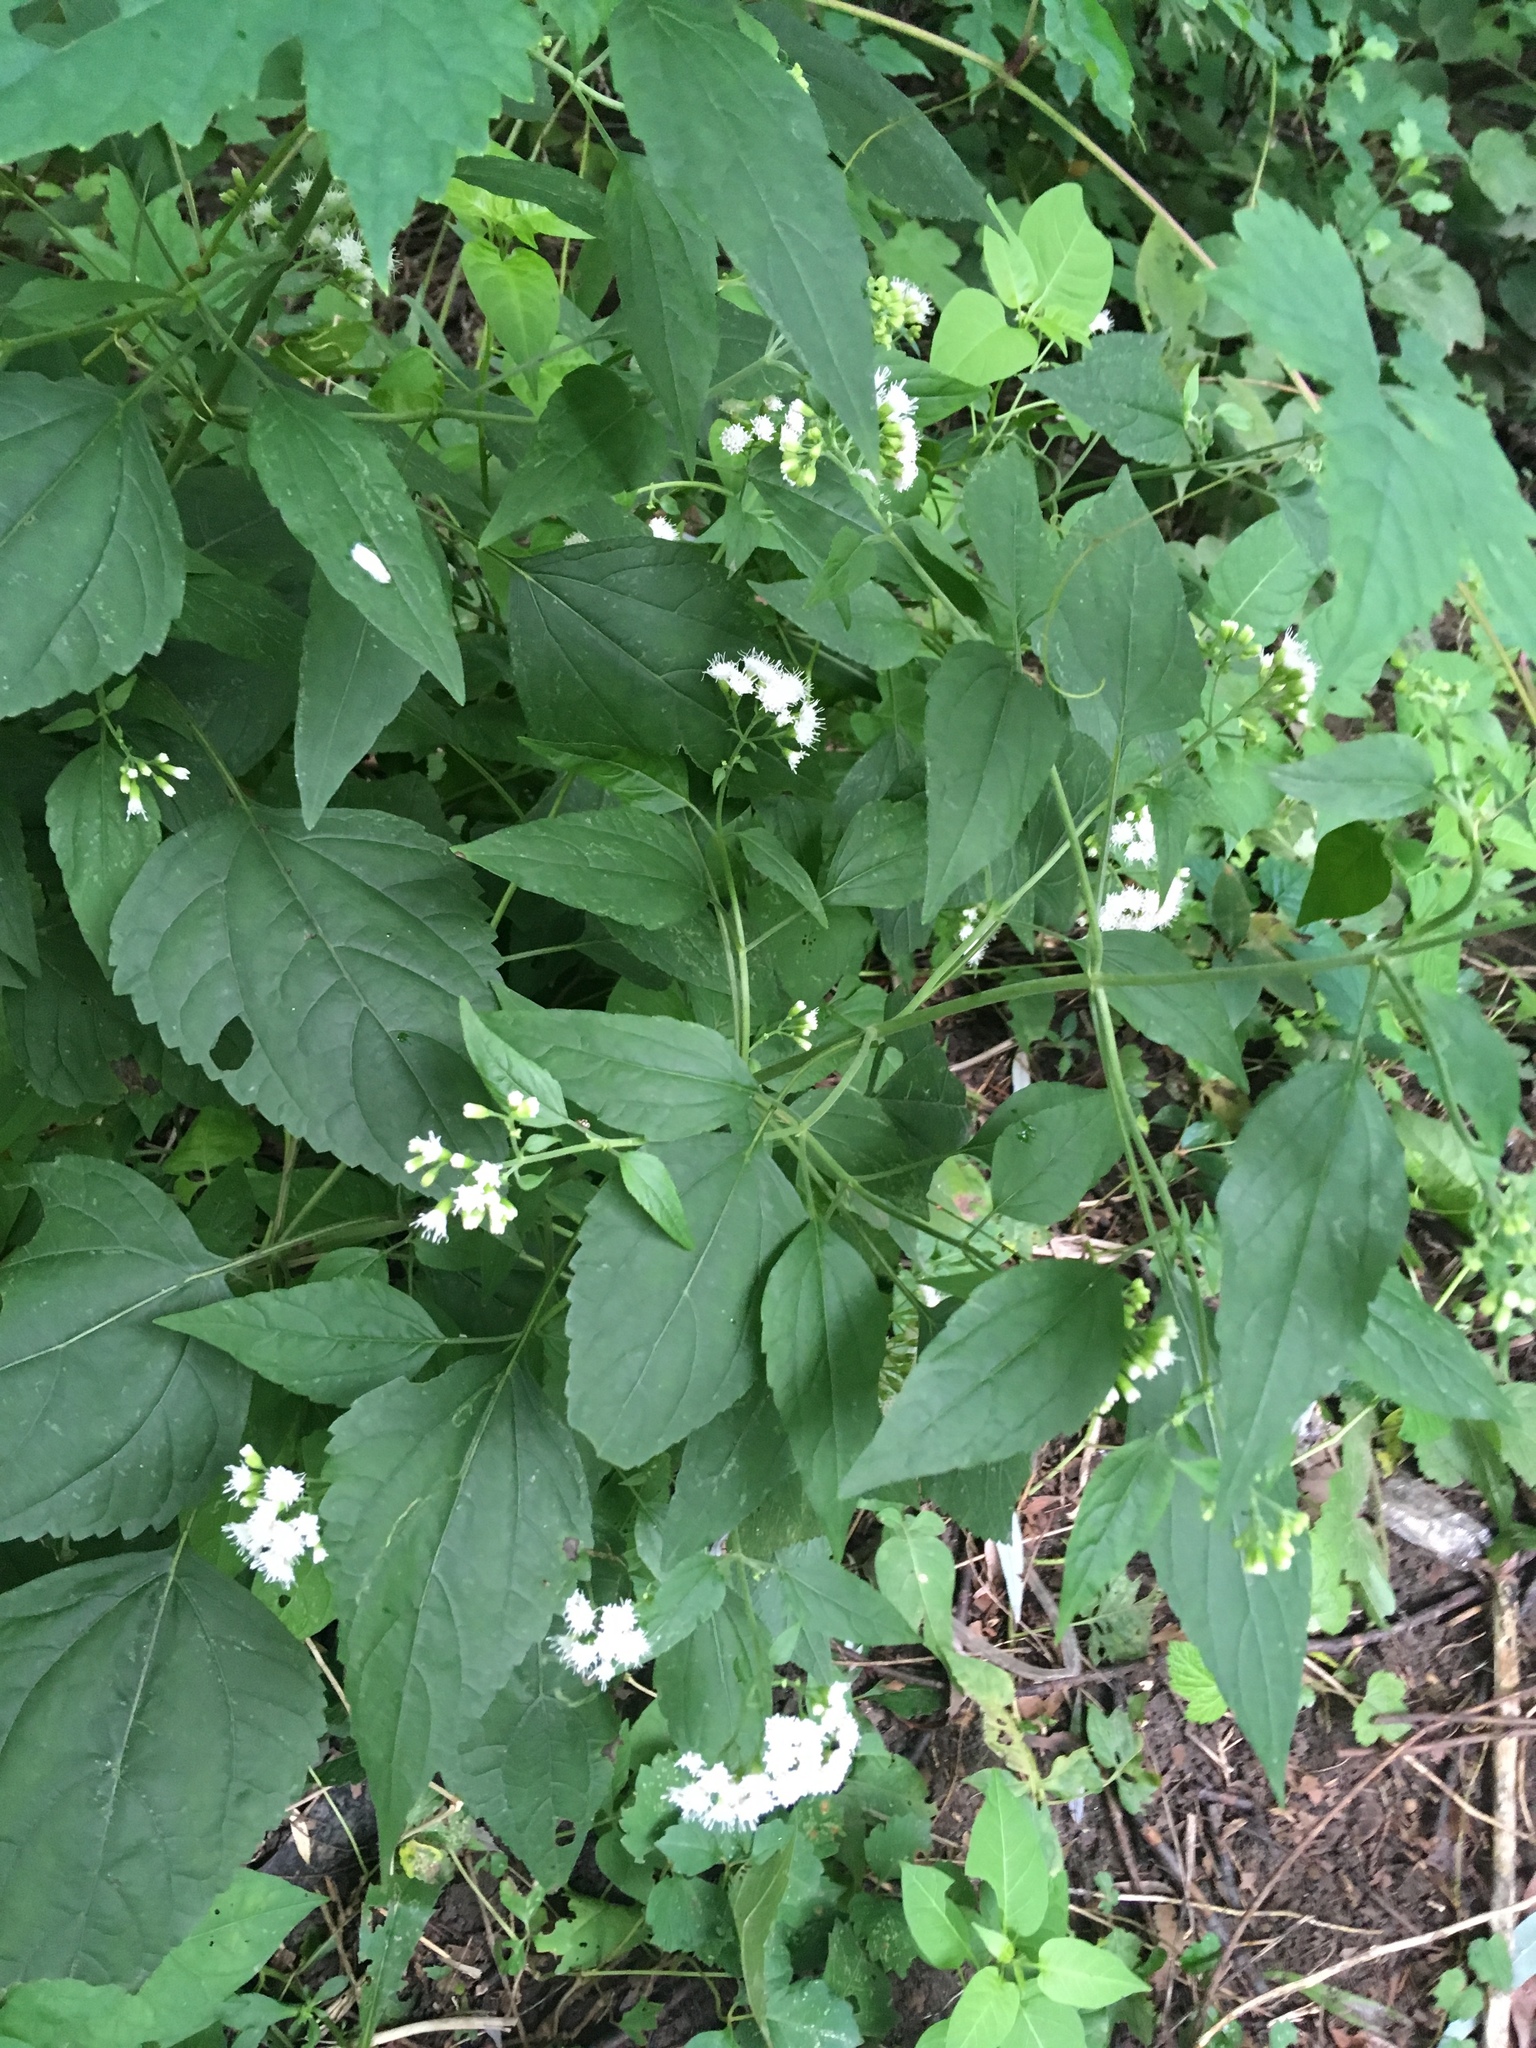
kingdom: Plantae
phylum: Tracheophyta
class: Magnoliopsida
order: Asterales
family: Asteraceae
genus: Ageratina
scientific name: Ageratina altissima
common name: White snakeroot
